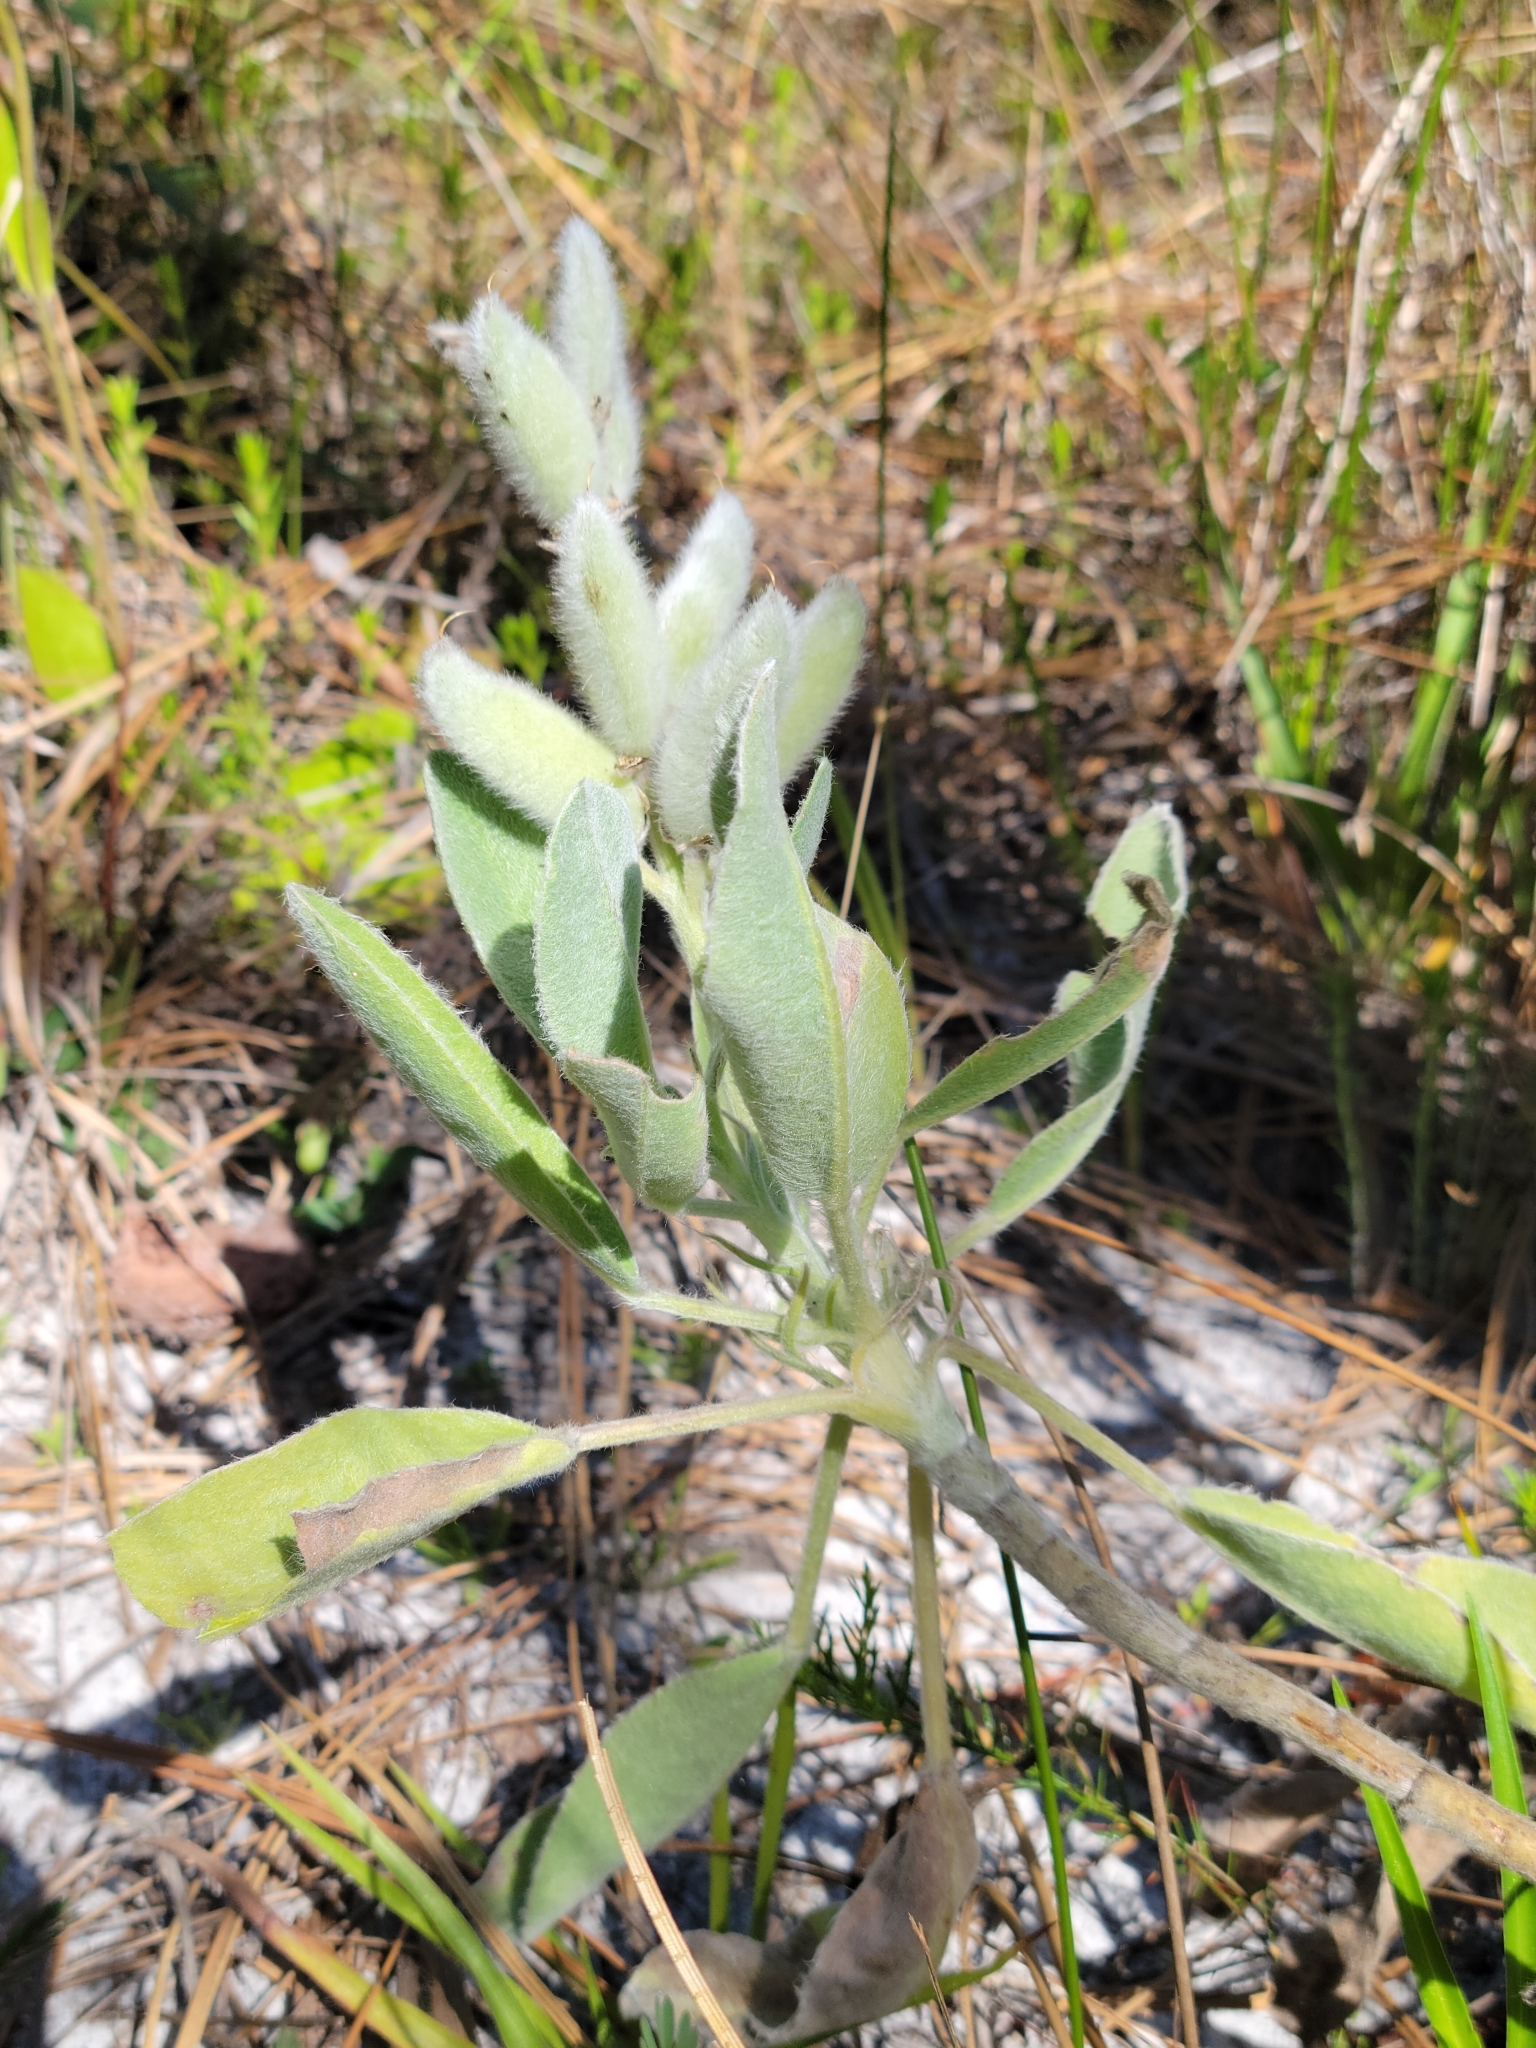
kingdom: Plantae
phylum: Tracheophyta
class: Magnoliopsida
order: Fabales
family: Fabaceae
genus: Lupinus
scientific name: Lupinus
